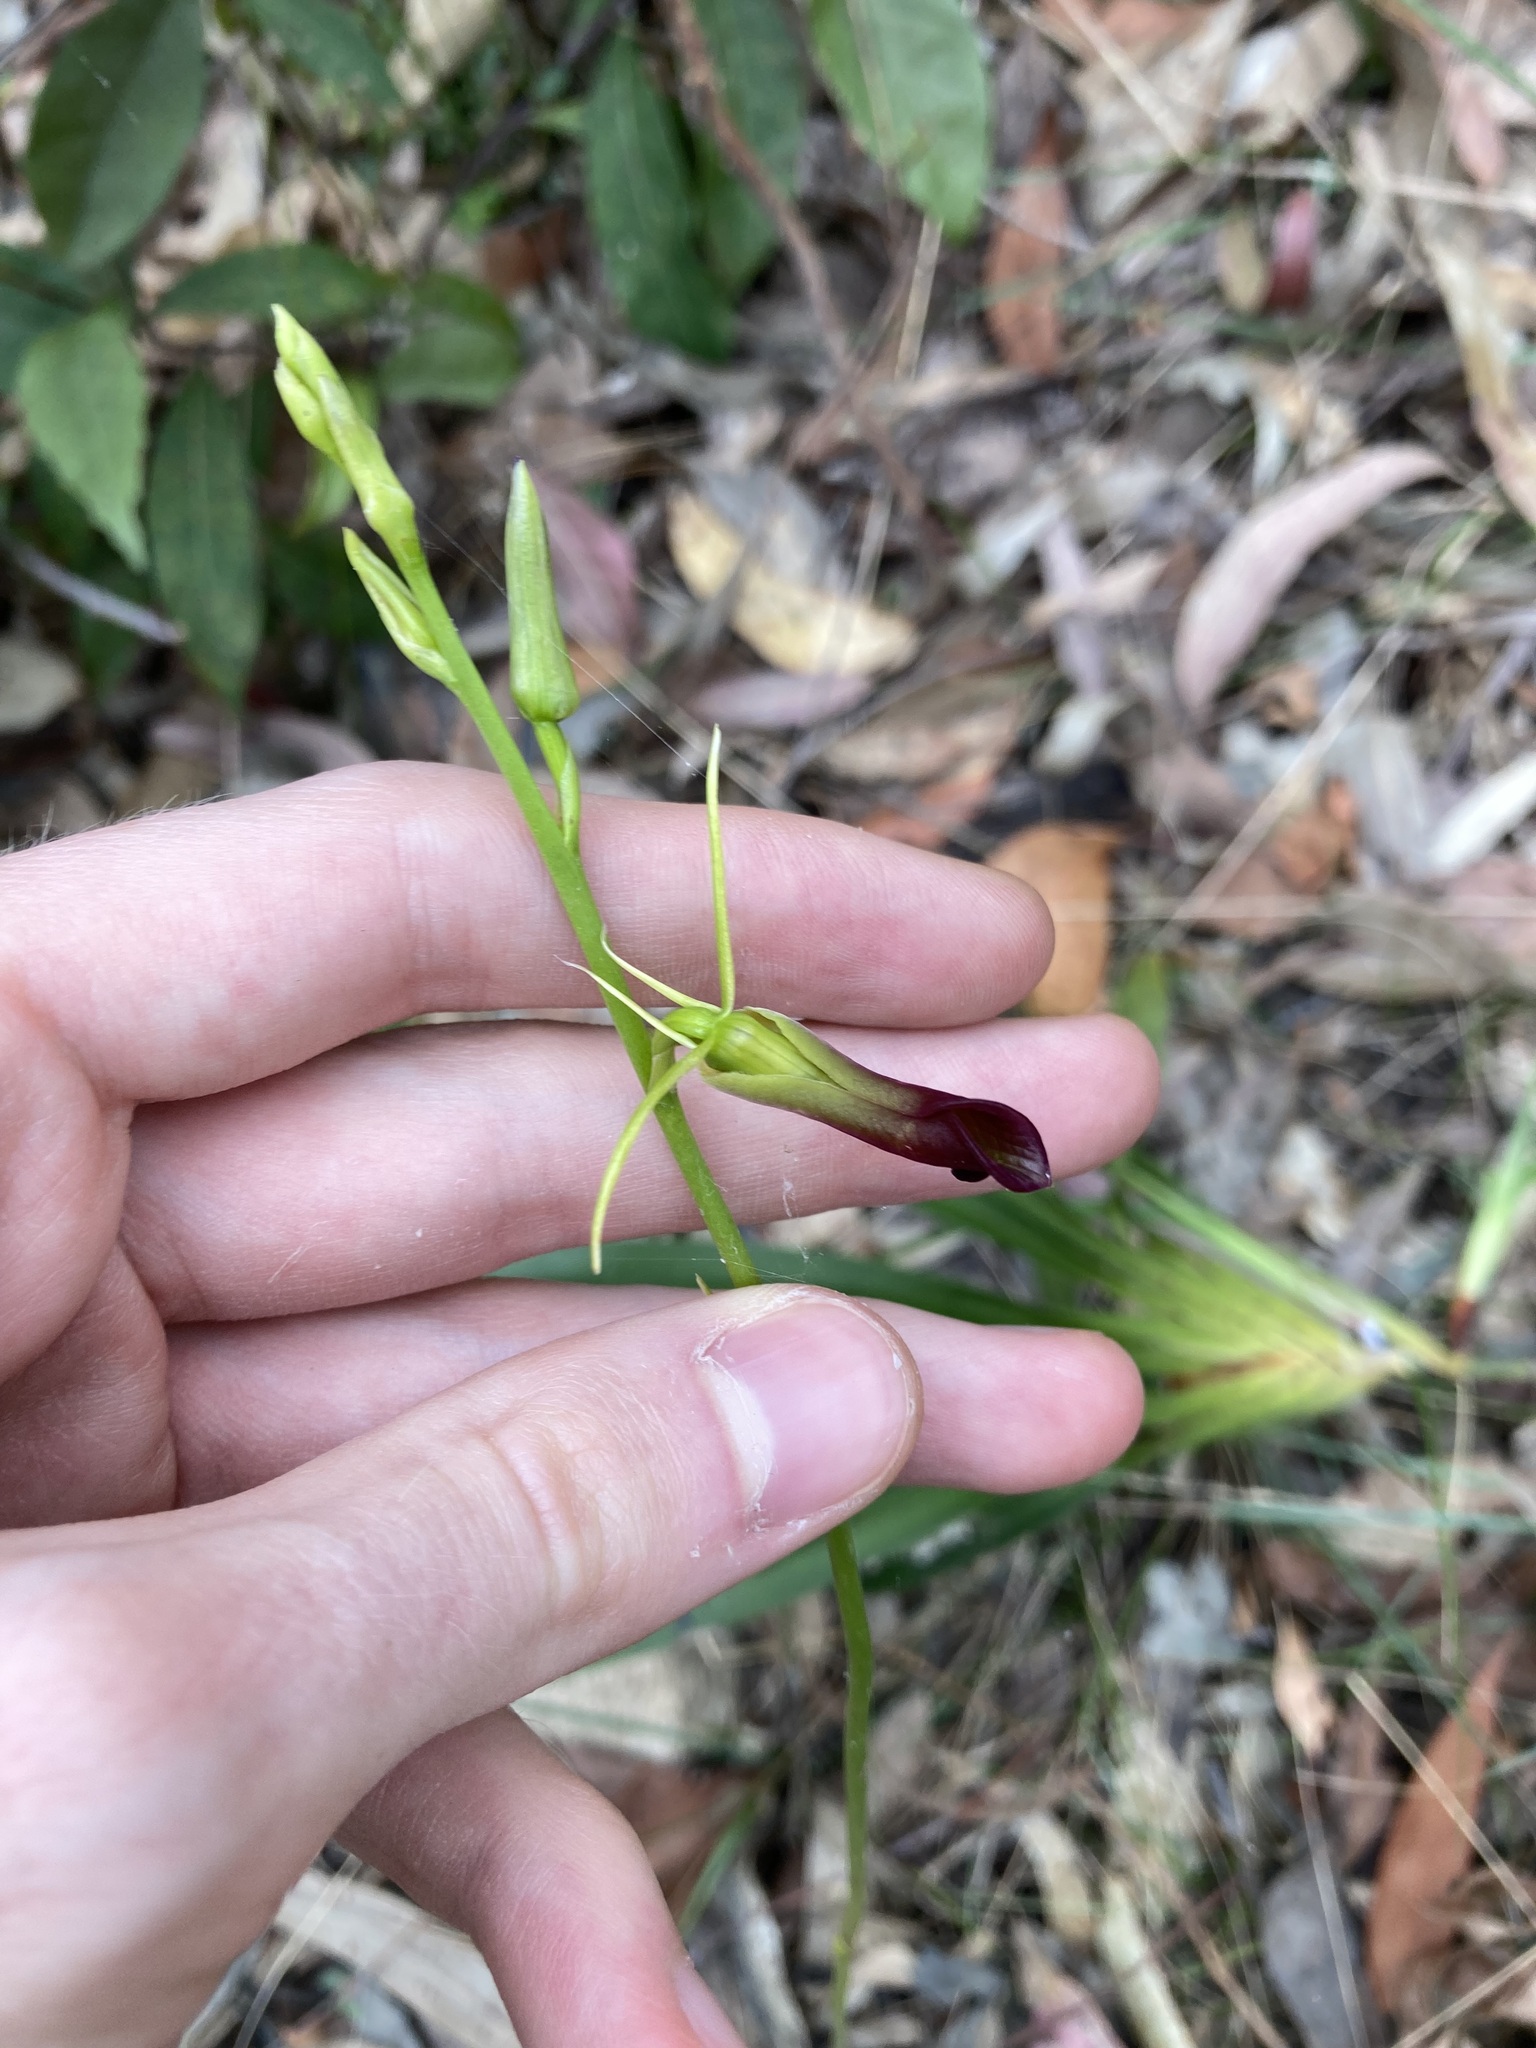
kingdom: Plantae
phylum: Tracheophyta
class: Liliopsida
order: Asparagales
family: Orchidaceae
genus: Cryptostylis
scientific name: Cryptostylis subulata
